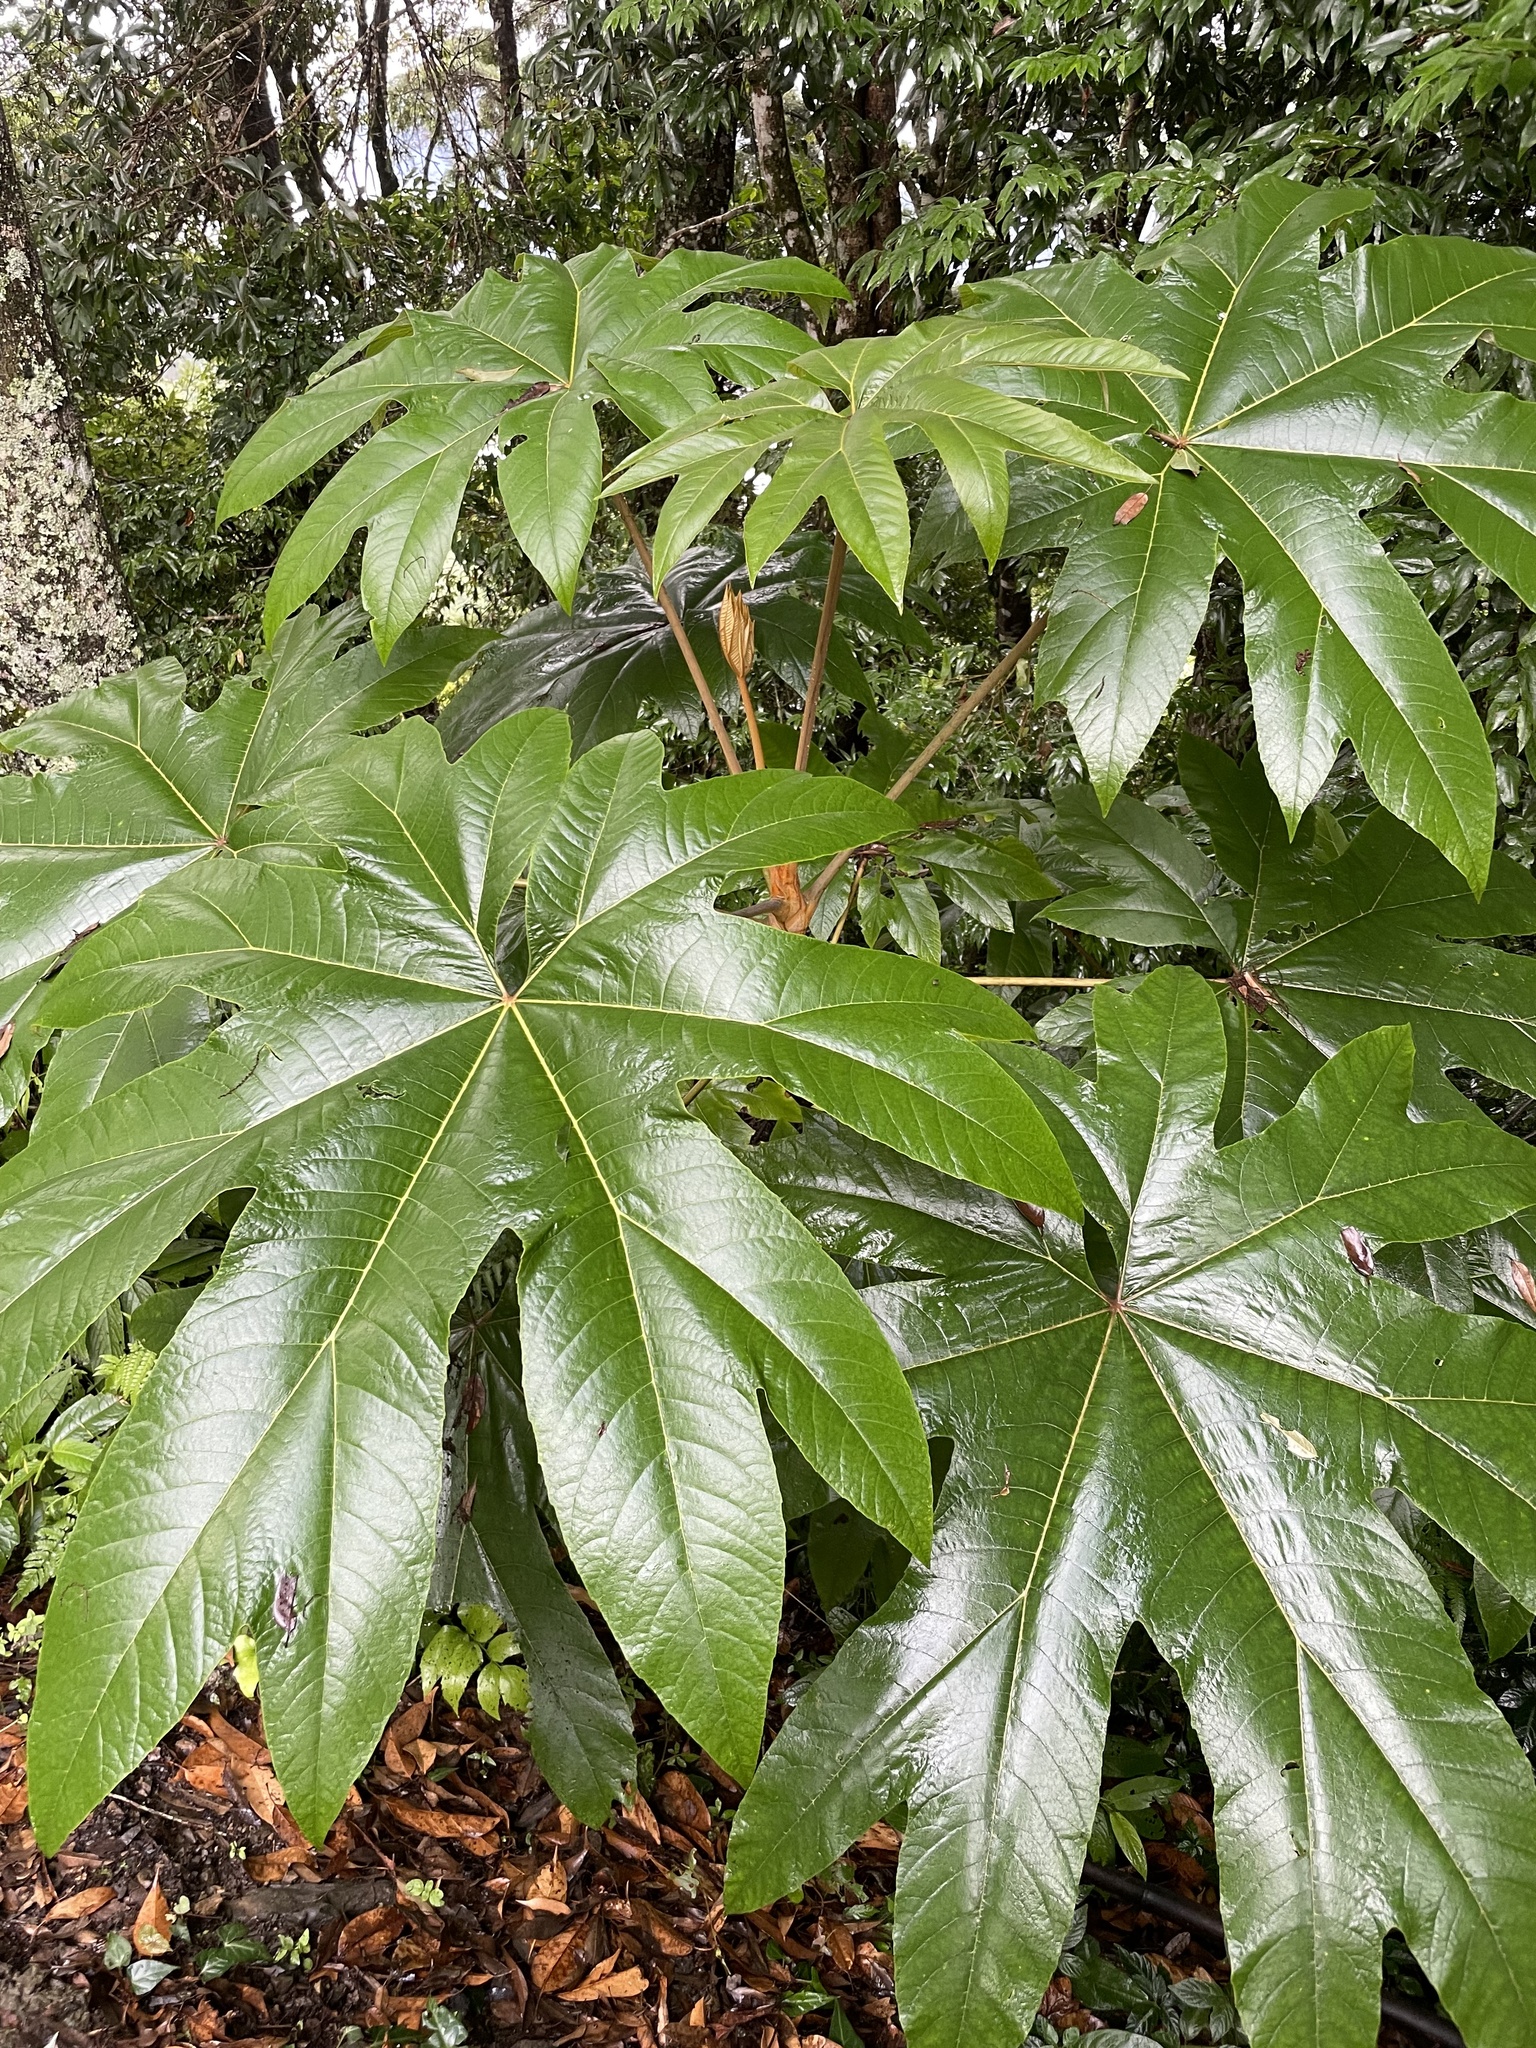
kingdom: Plantae
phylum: Tracheophyta
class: Magnoliopsida
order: Apiales
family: Araliaceae
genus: Tetrapanax
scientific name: Tetrapanax papyrifer
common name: Rice-paper plant
